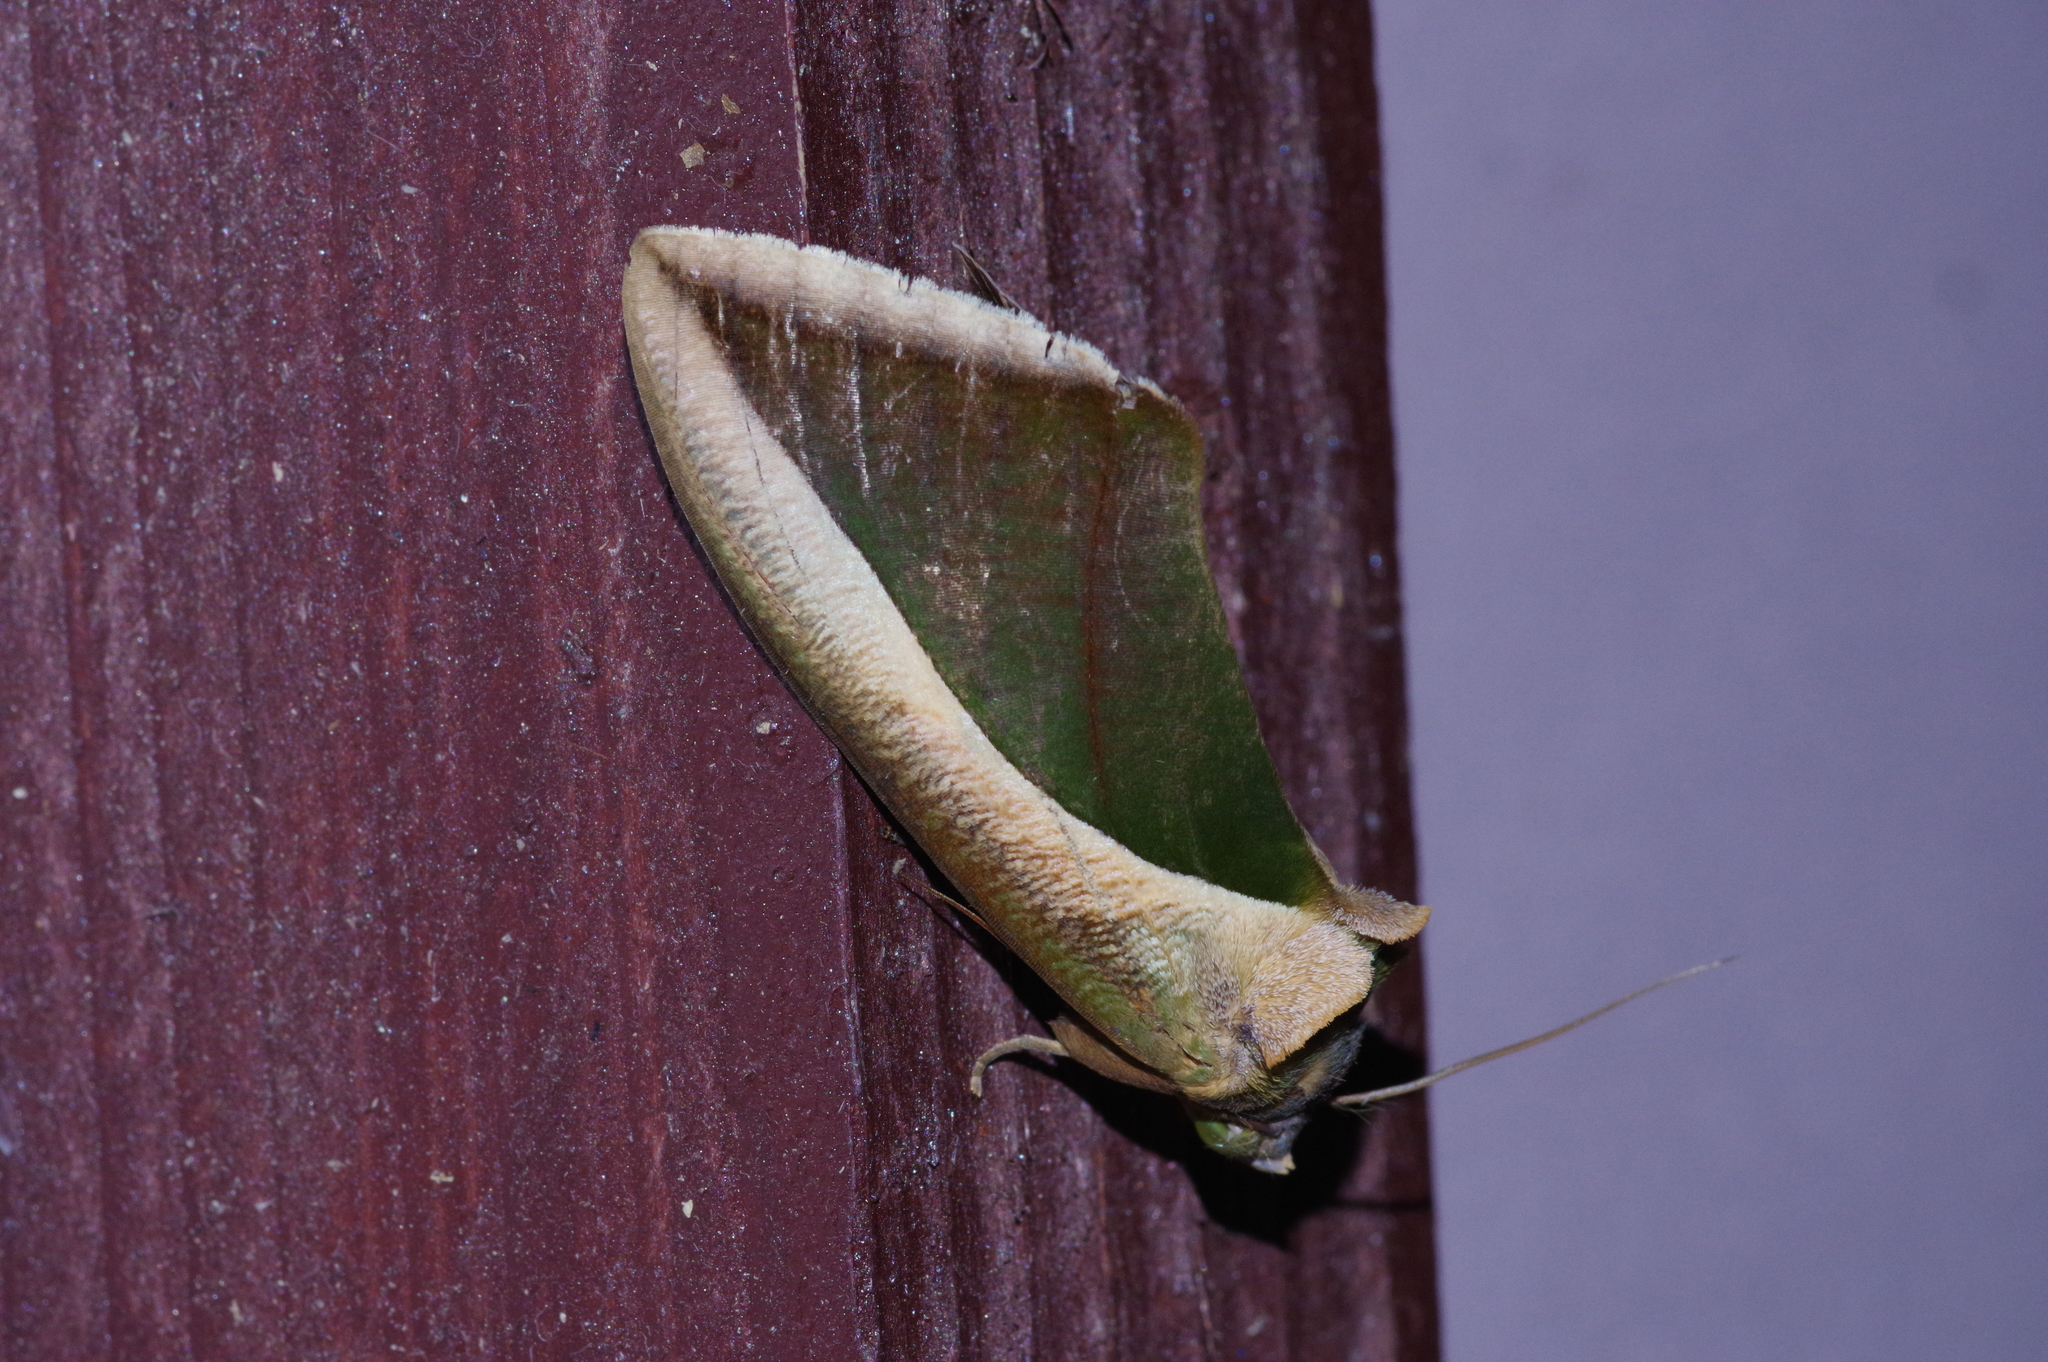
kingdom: Animalia
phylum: Arthropoda
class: Insecta
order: Lepidoptera
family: Erebidae
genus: Eudocima
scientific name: Eudocima salaminia
